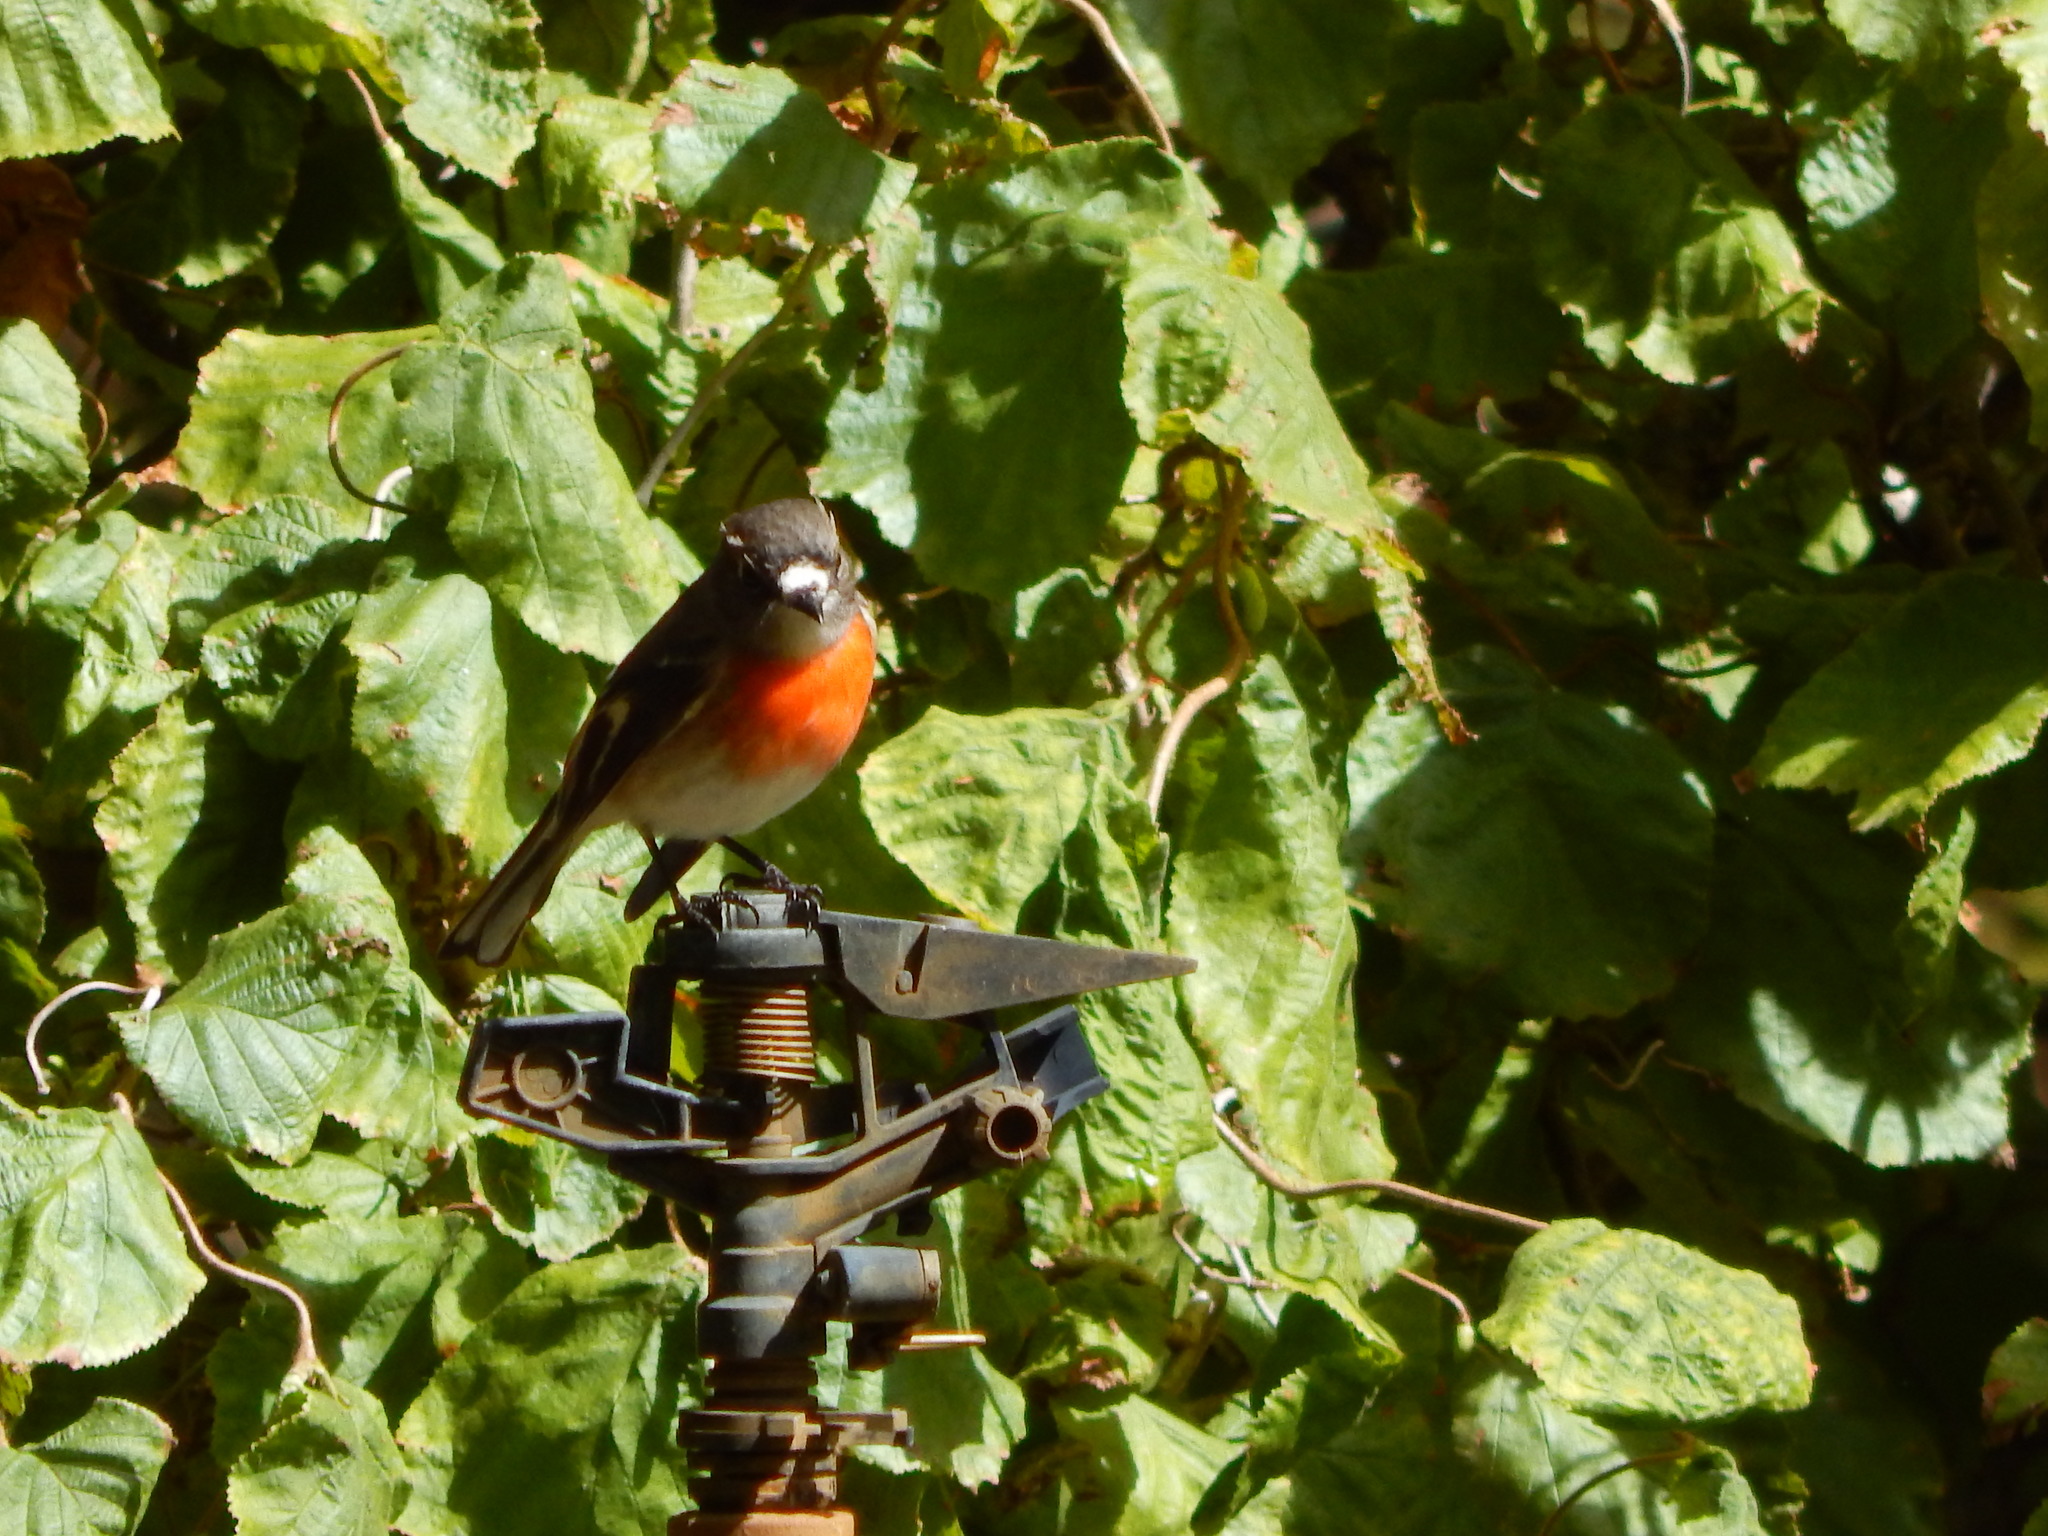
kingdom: Animalia
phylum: Chordata
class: Aves
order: Passeriformes
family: Petroicidae
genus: Petroica
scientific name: Petroica boodang
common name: Scarlet robin
